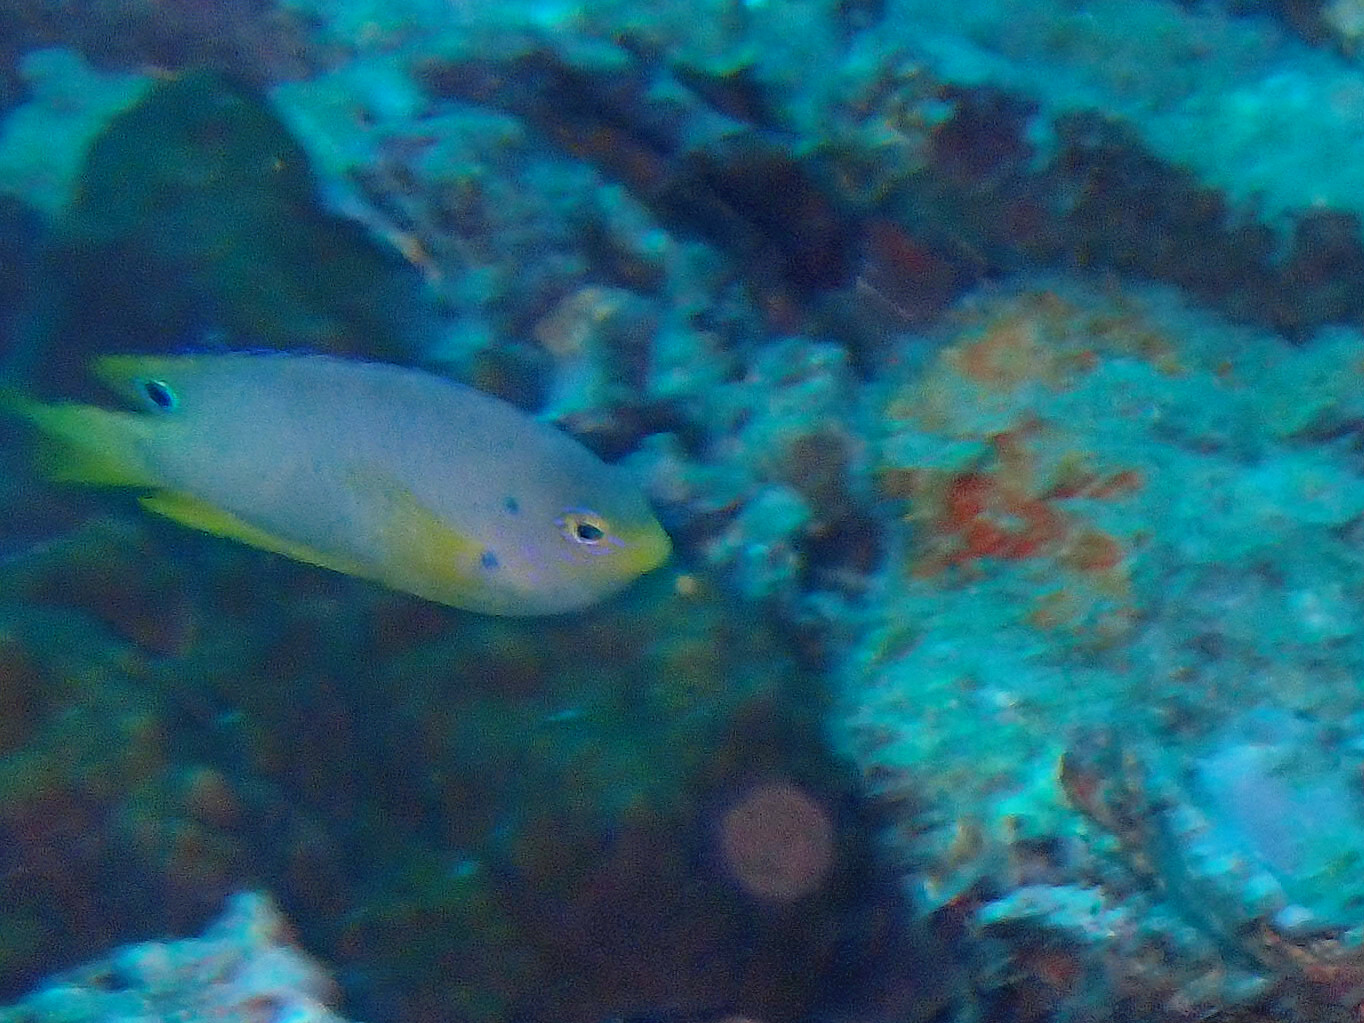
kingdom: Animalia
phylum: Chordata
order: Perciformes
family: Pomacentridae
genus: Pomacentrus
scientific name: Pomacentrus andamanensis
